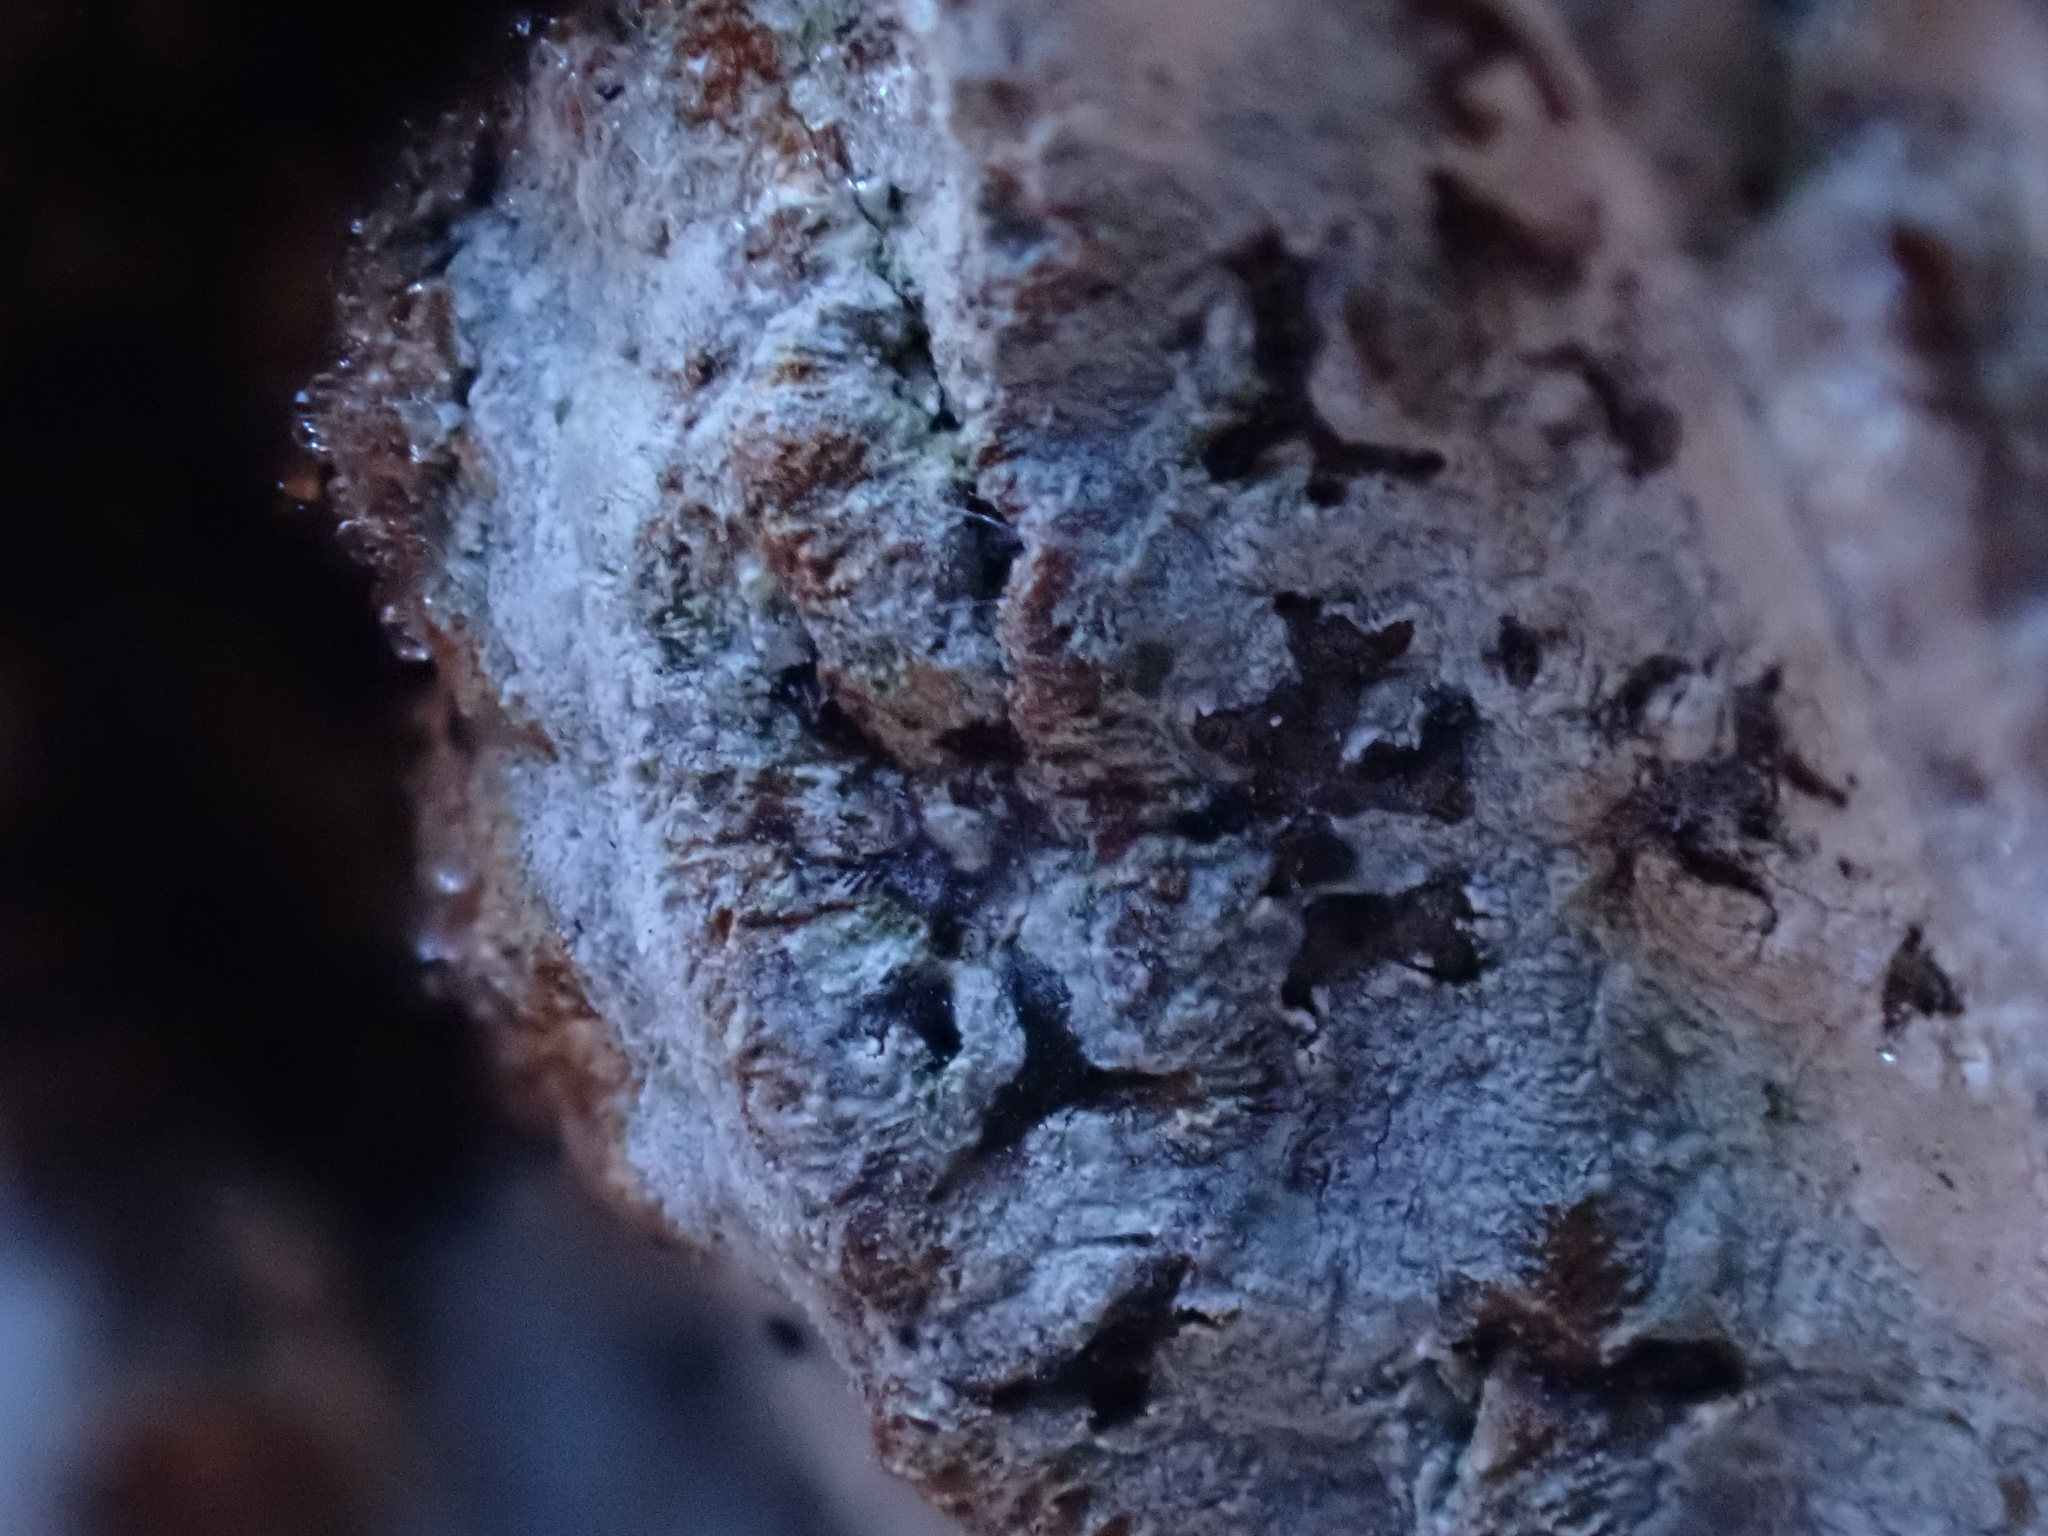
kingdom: Fungi
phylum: Ascomycota
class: Lecanoromycetes
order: Ostropales
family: Graphidaceae
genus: Phaeographis
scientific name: Phaeographis smithii
